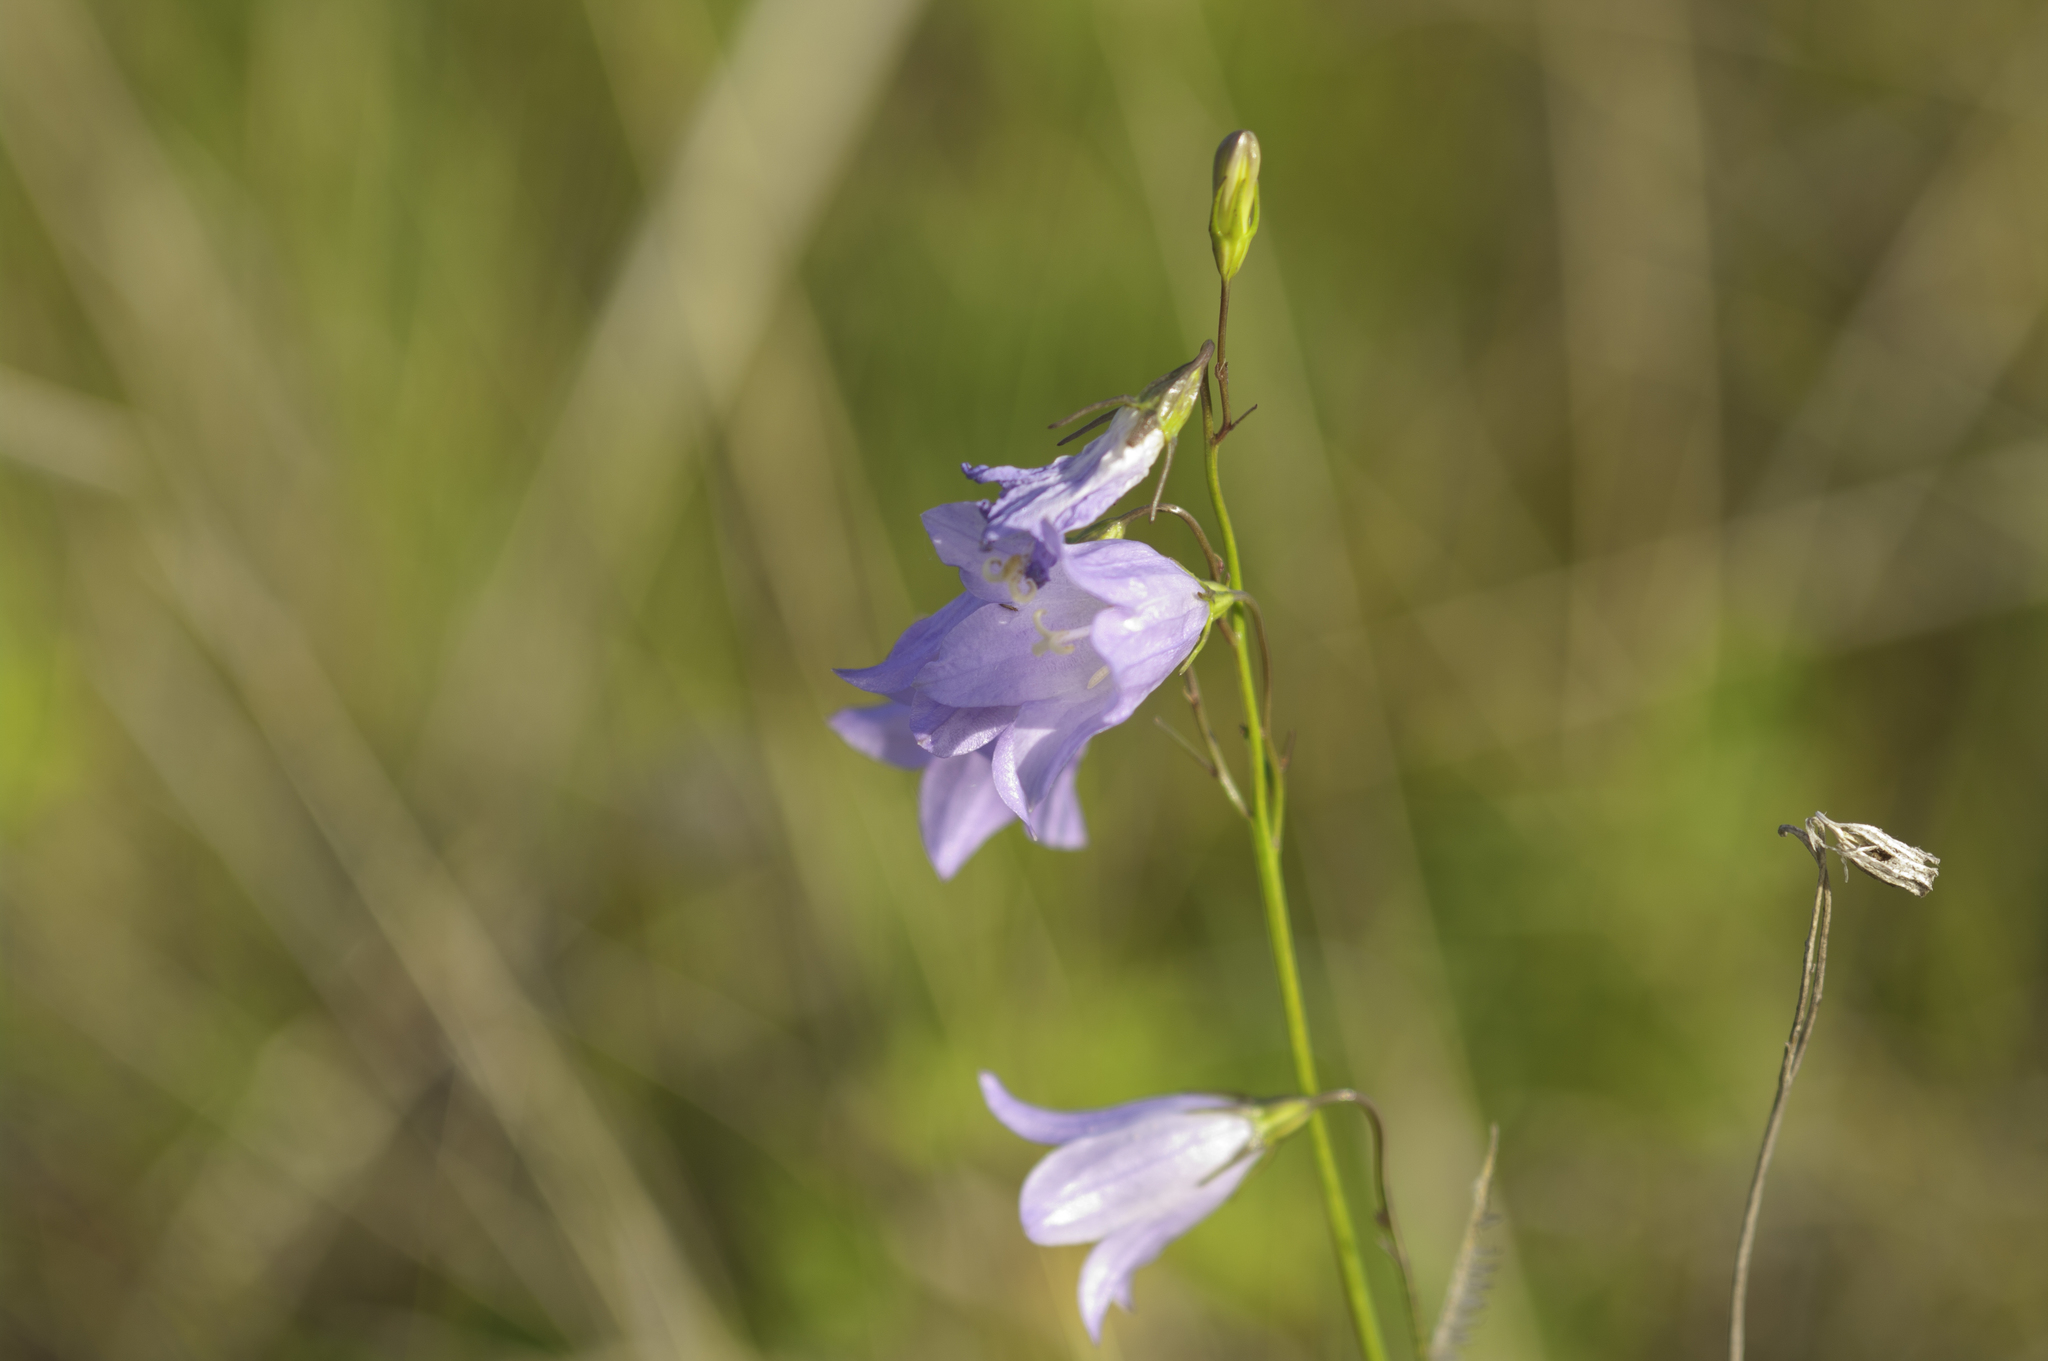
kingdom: Plantae
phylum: Tracheophyta
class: Magnoliopsida
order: Asterales
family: Campanulaceae
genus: Campanula
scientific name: Campanula alaskana
